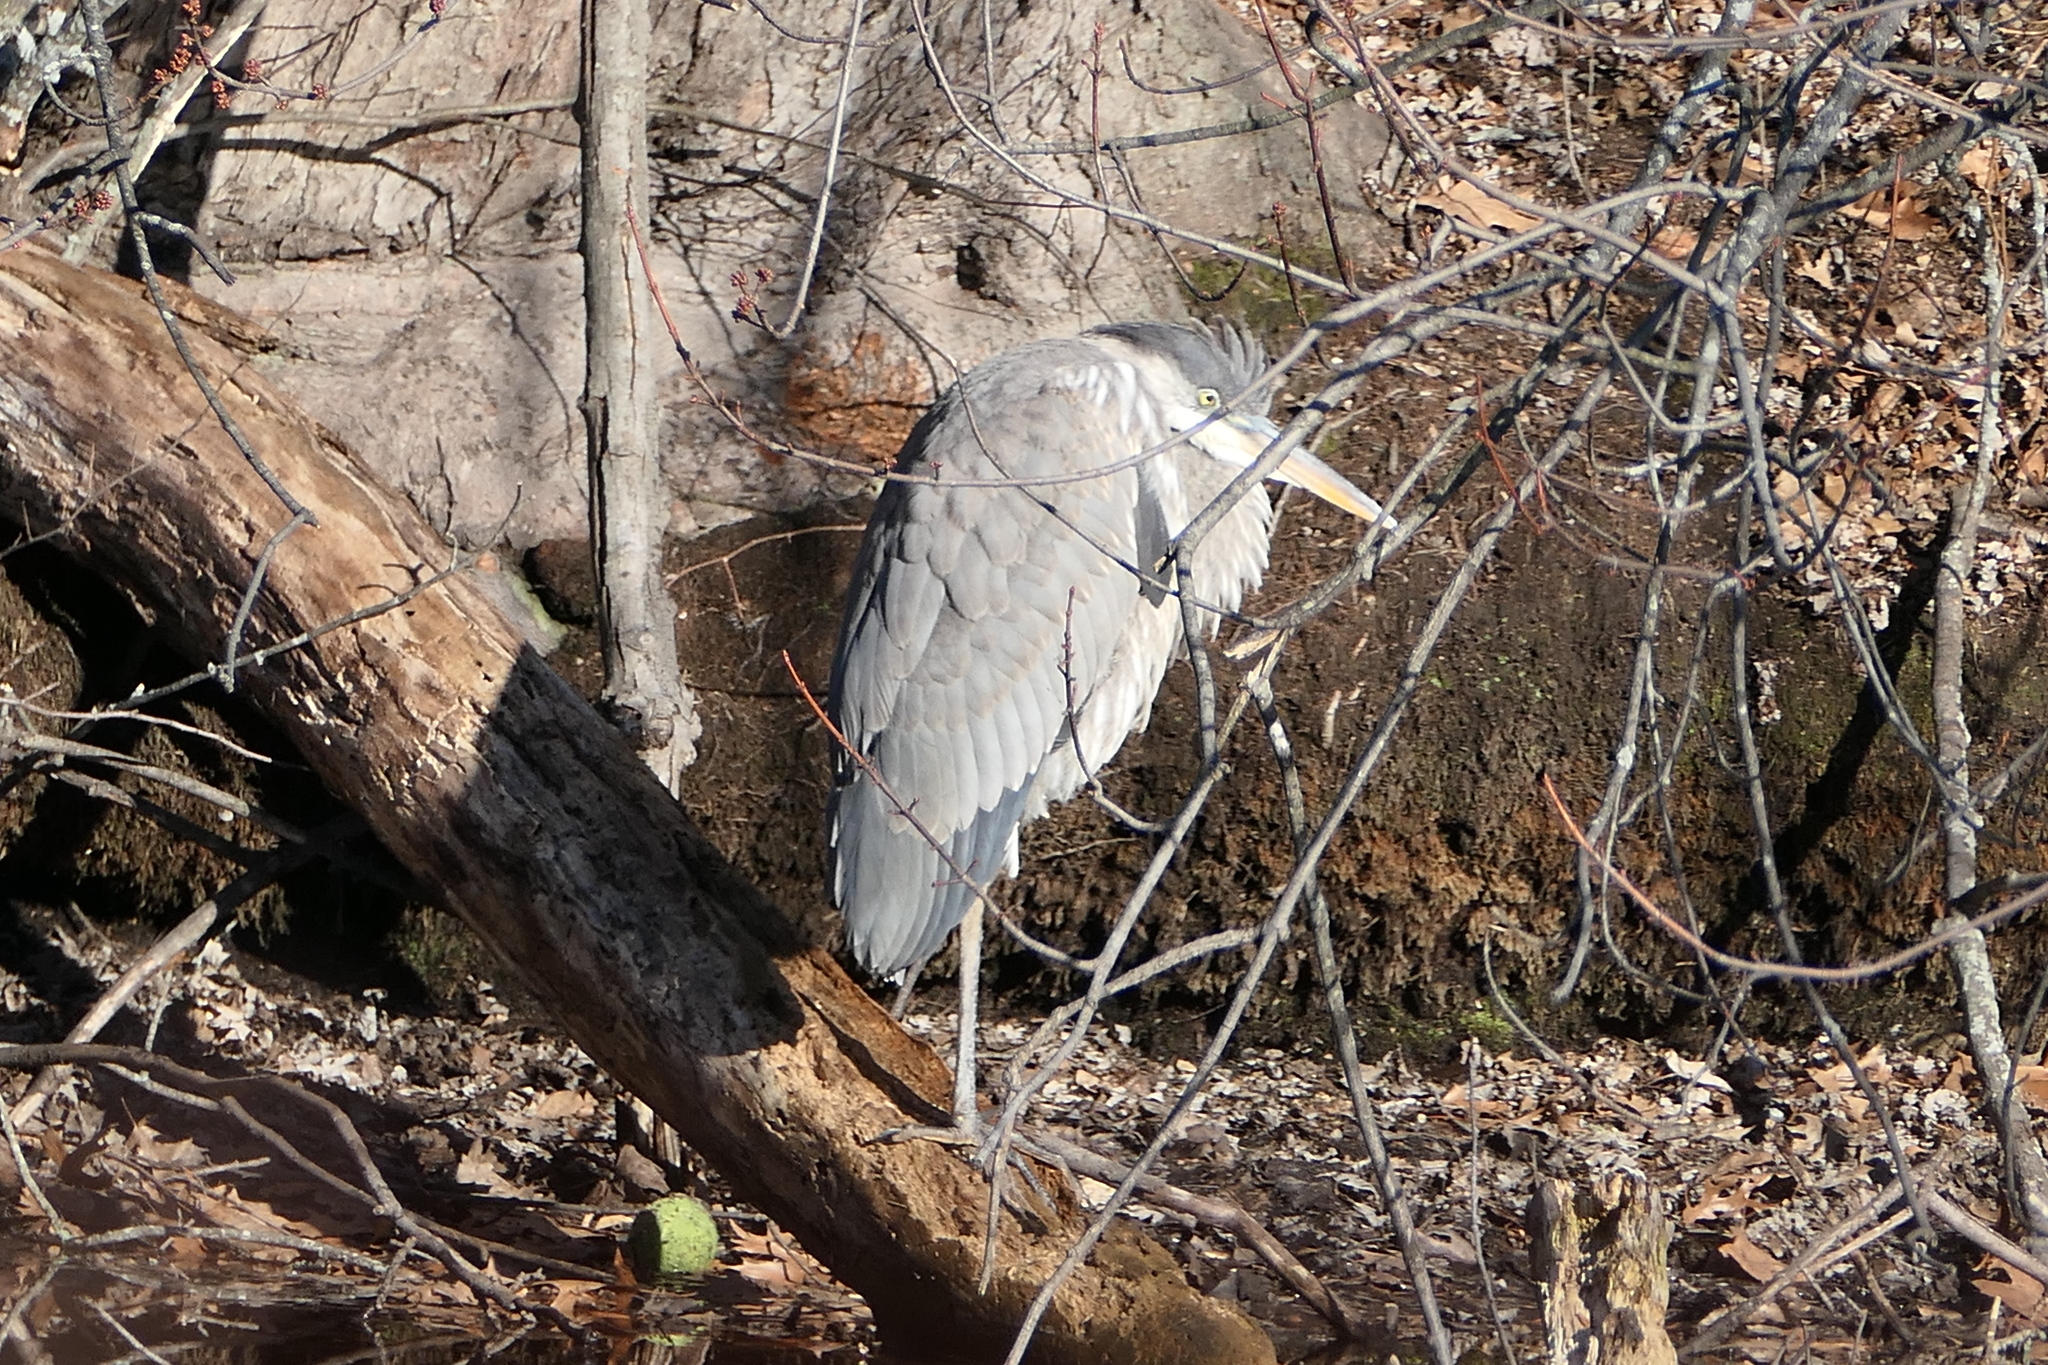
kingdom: Animalia
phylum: Chordata
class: Aves
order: Pelecaniformes
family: Ardeidae
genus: Ardea
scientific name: Ardea herodias
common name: Great blue heron
